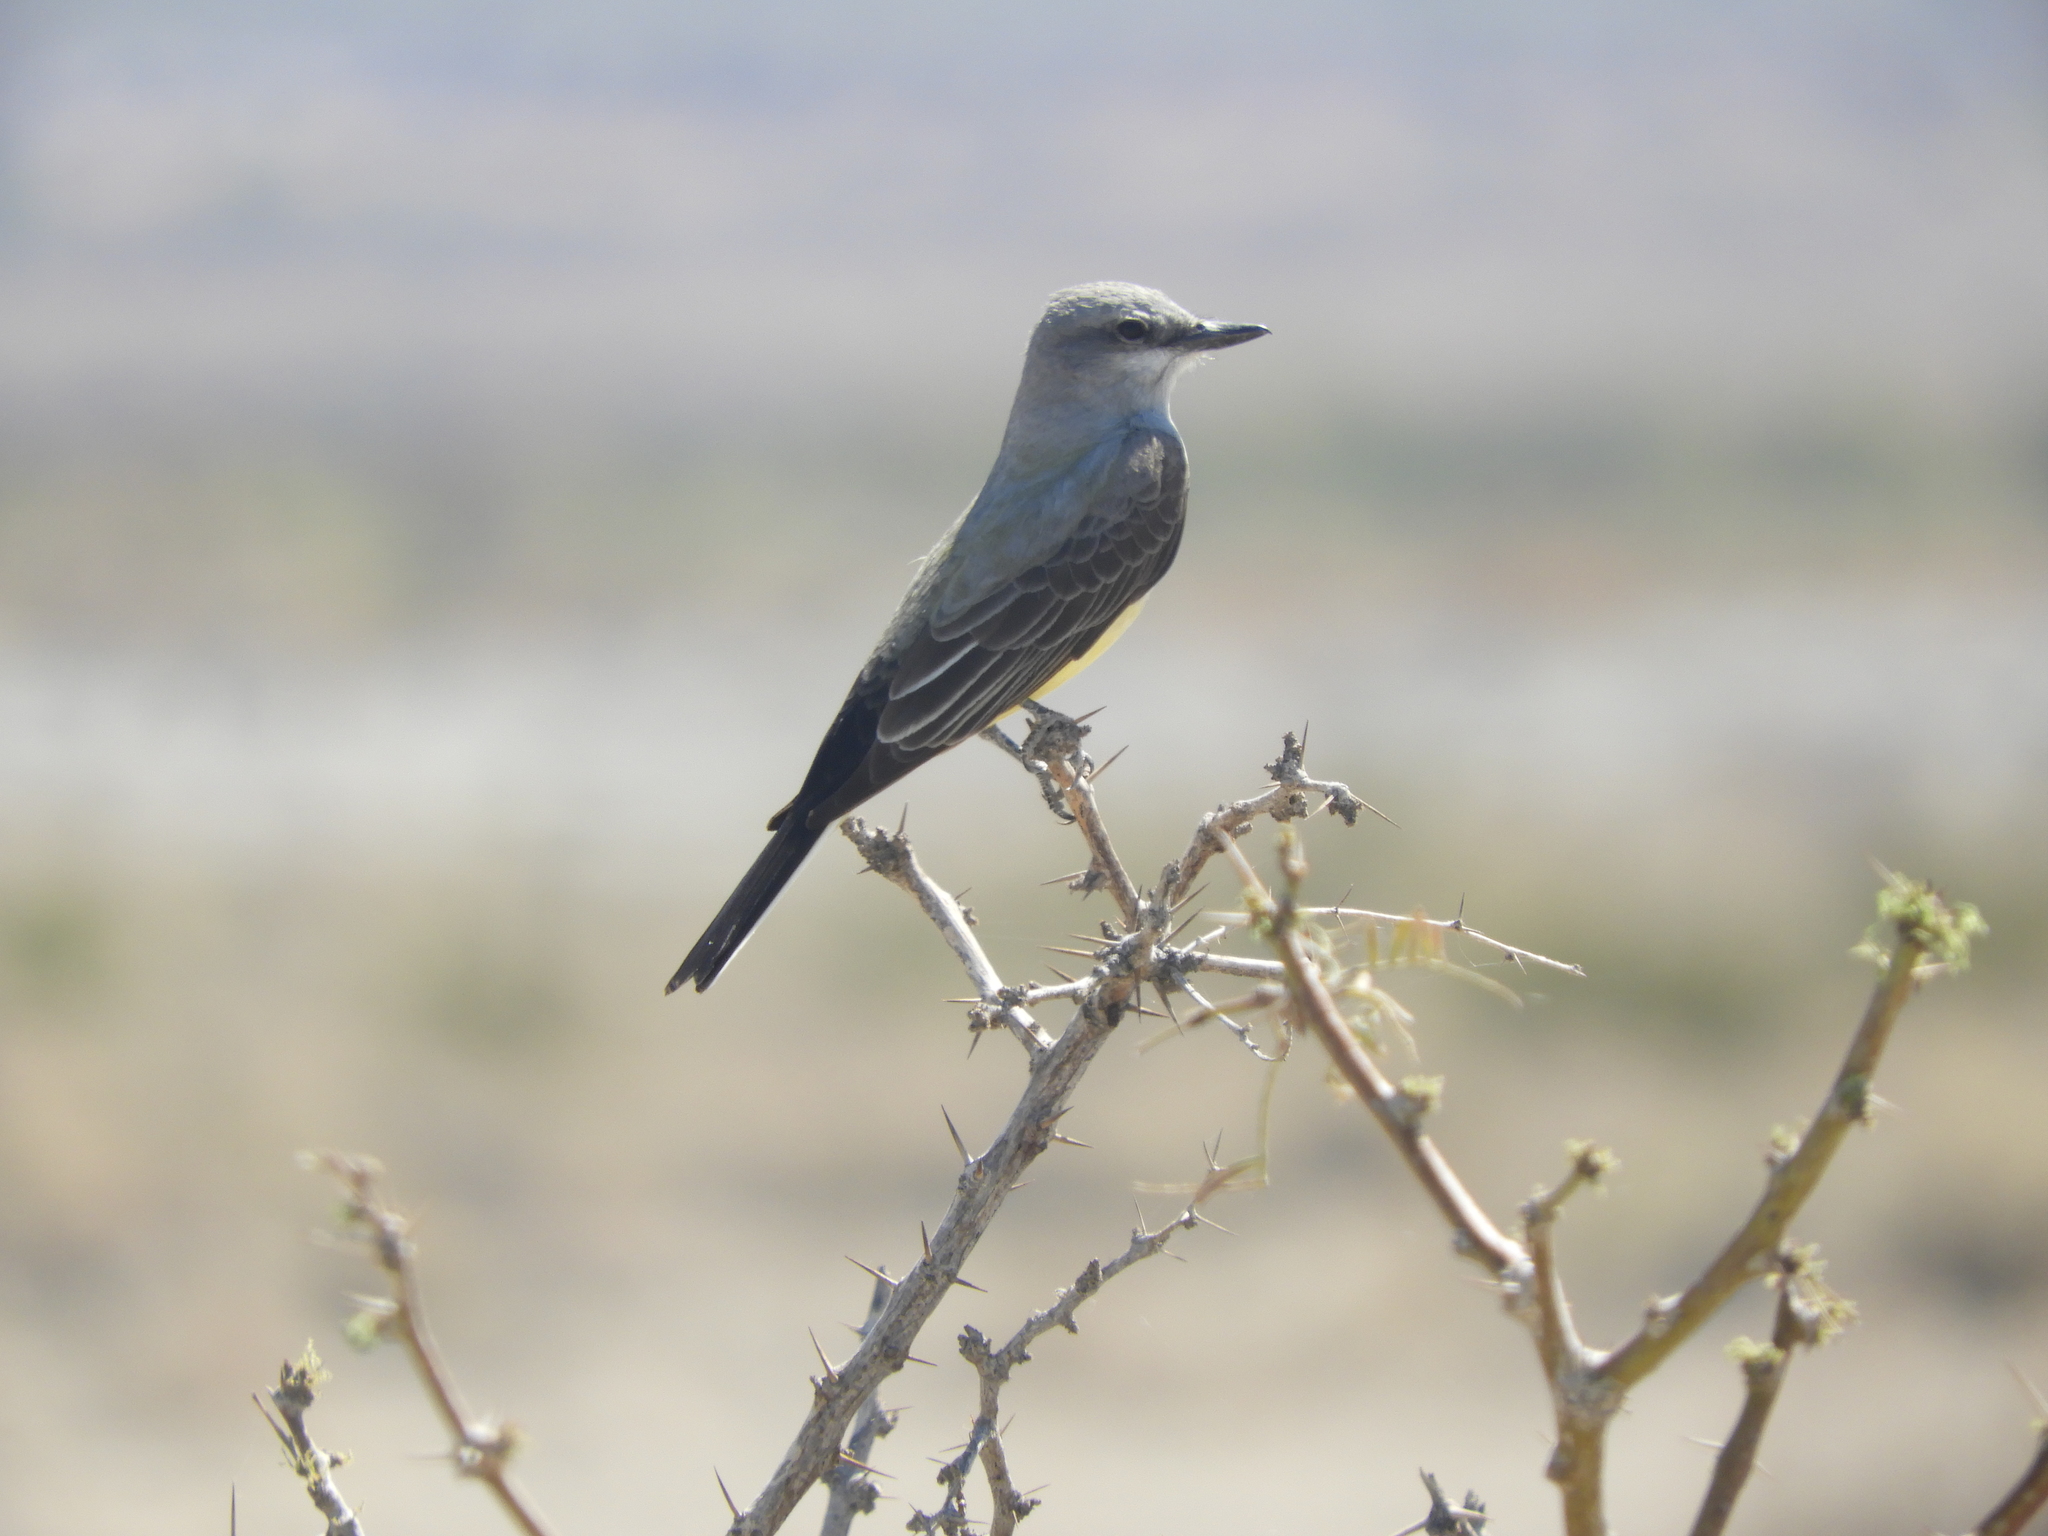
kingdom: Animalia
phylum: Chordata
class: Aves
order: Passeriformes
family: Tyrannidae
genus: Tyrannus
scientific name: Tyrannus verticalis
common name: Western kingbird
